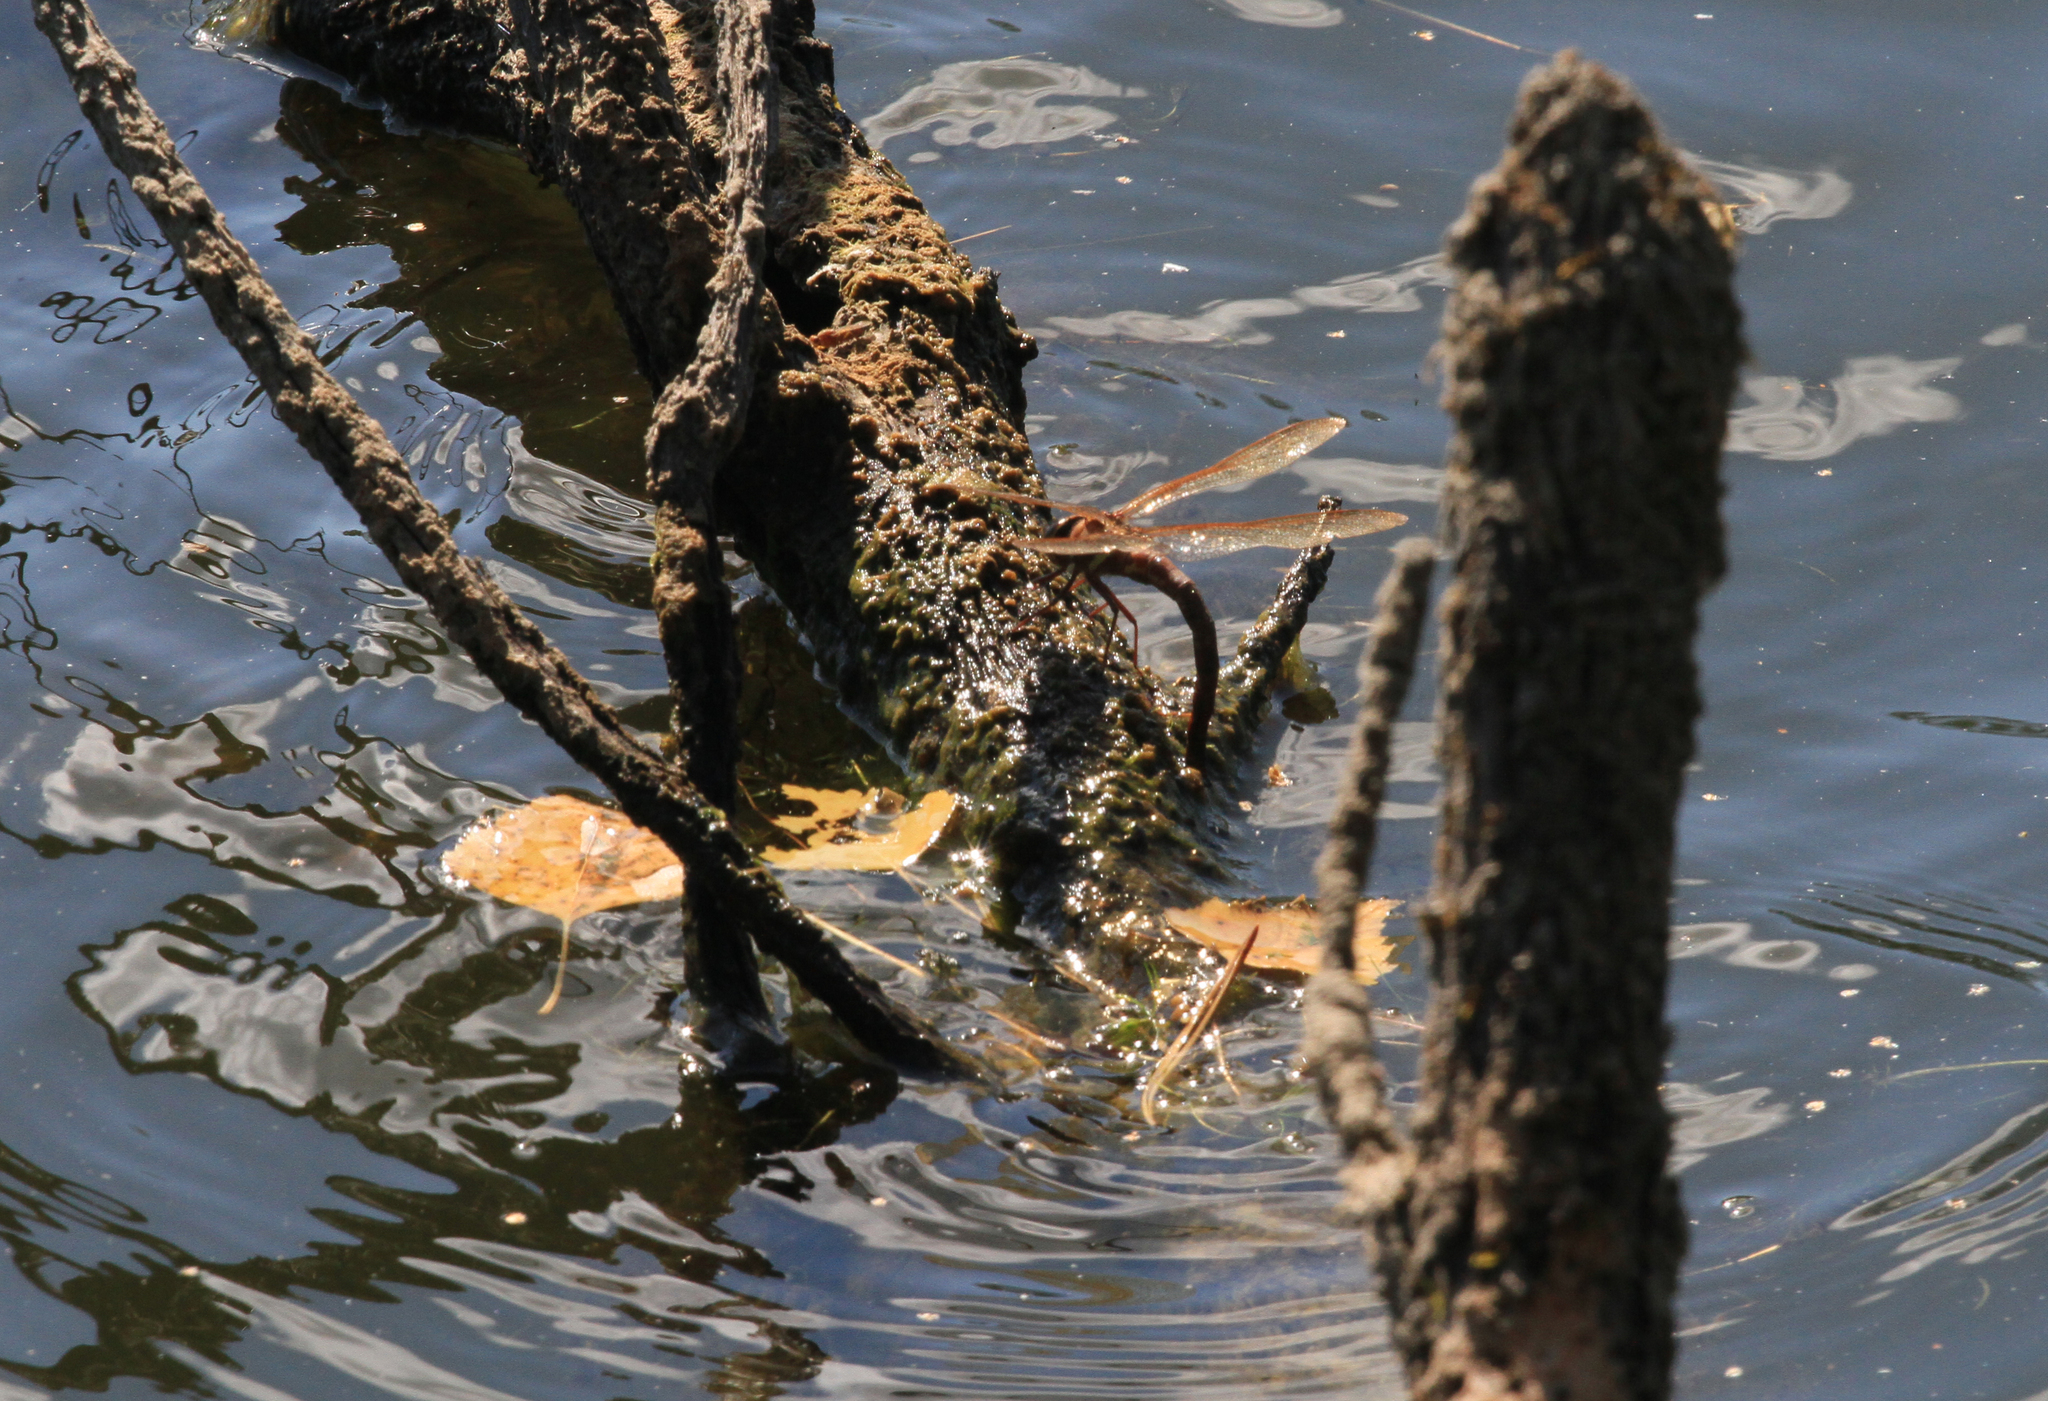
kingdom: Animalia
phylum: Arthropoda
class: Insecta
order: Odonata
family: Aeshnidae
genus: Aeshna
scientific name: Aeshna grandis
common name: Brown hawker
